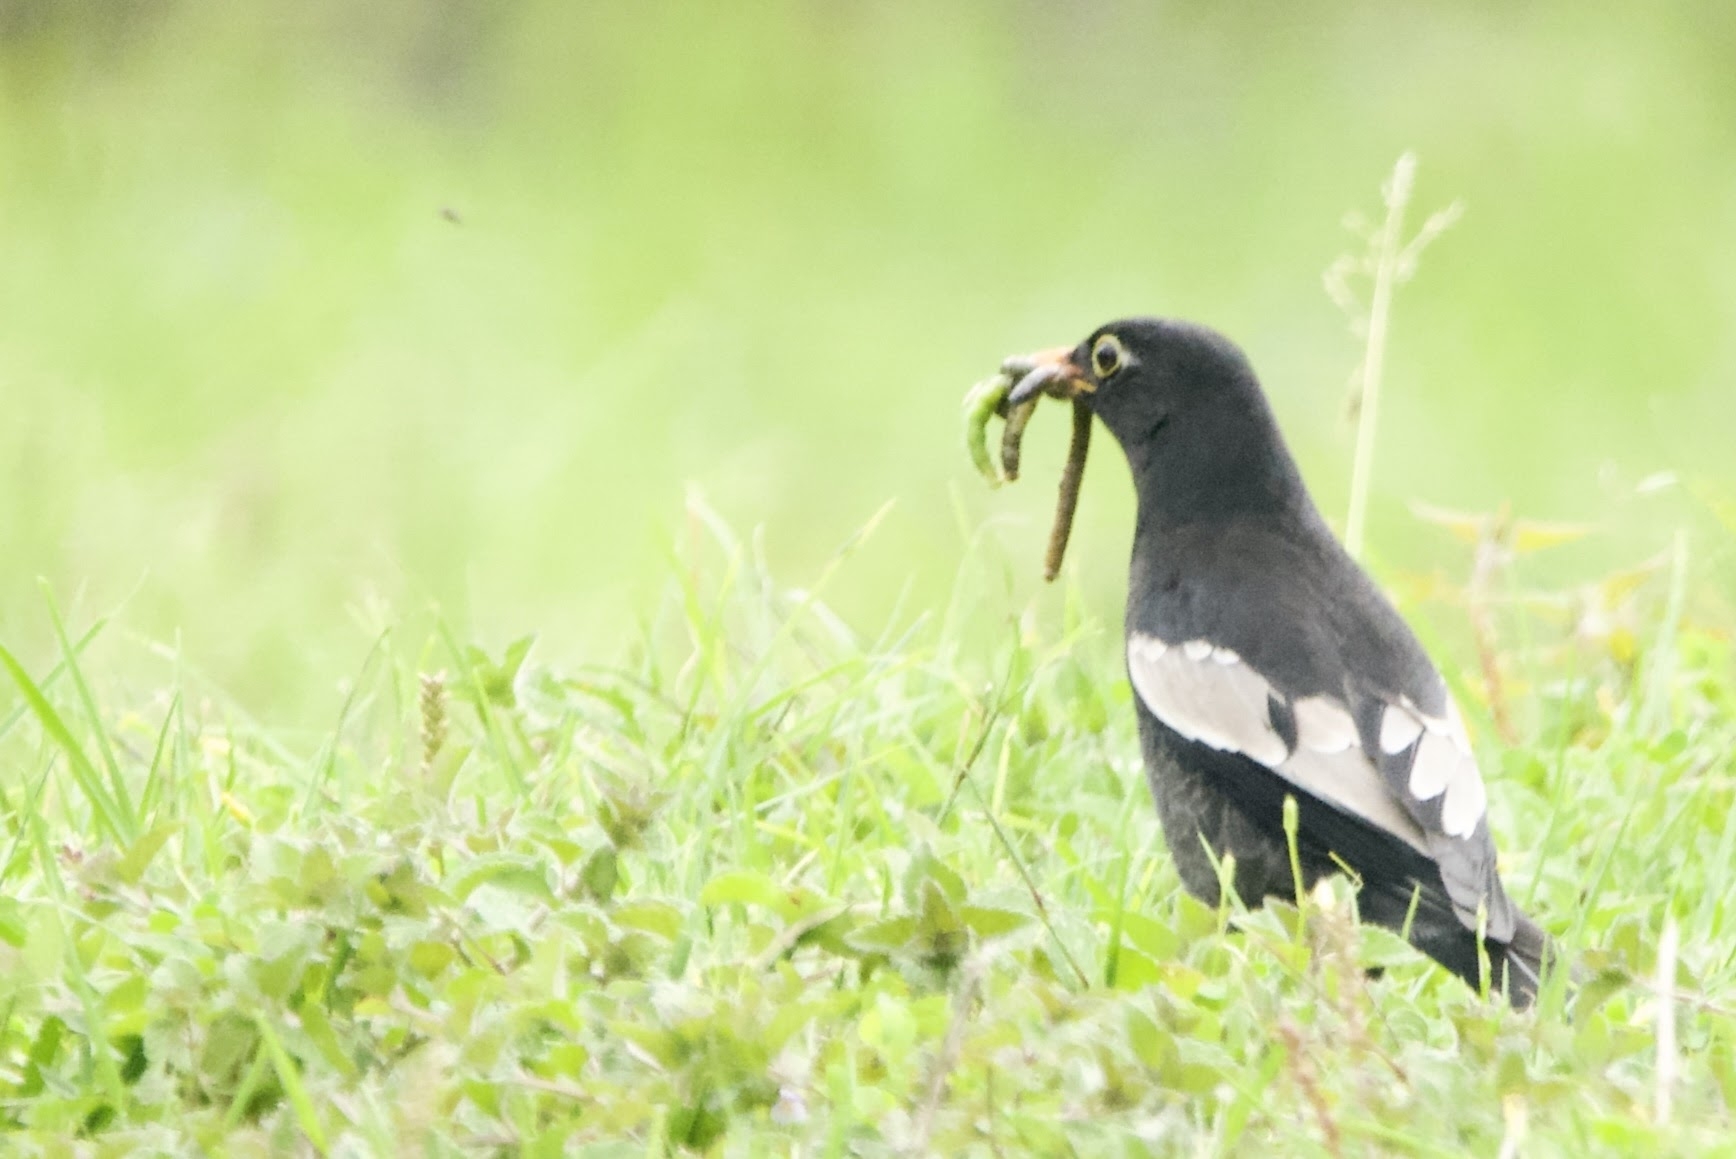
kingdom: Animalia
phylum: Chordata
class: Aves
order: Passeriformes
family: Turdidae
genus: Turdus
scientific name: Turdus boulboul
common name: Grey-winged blackbird
